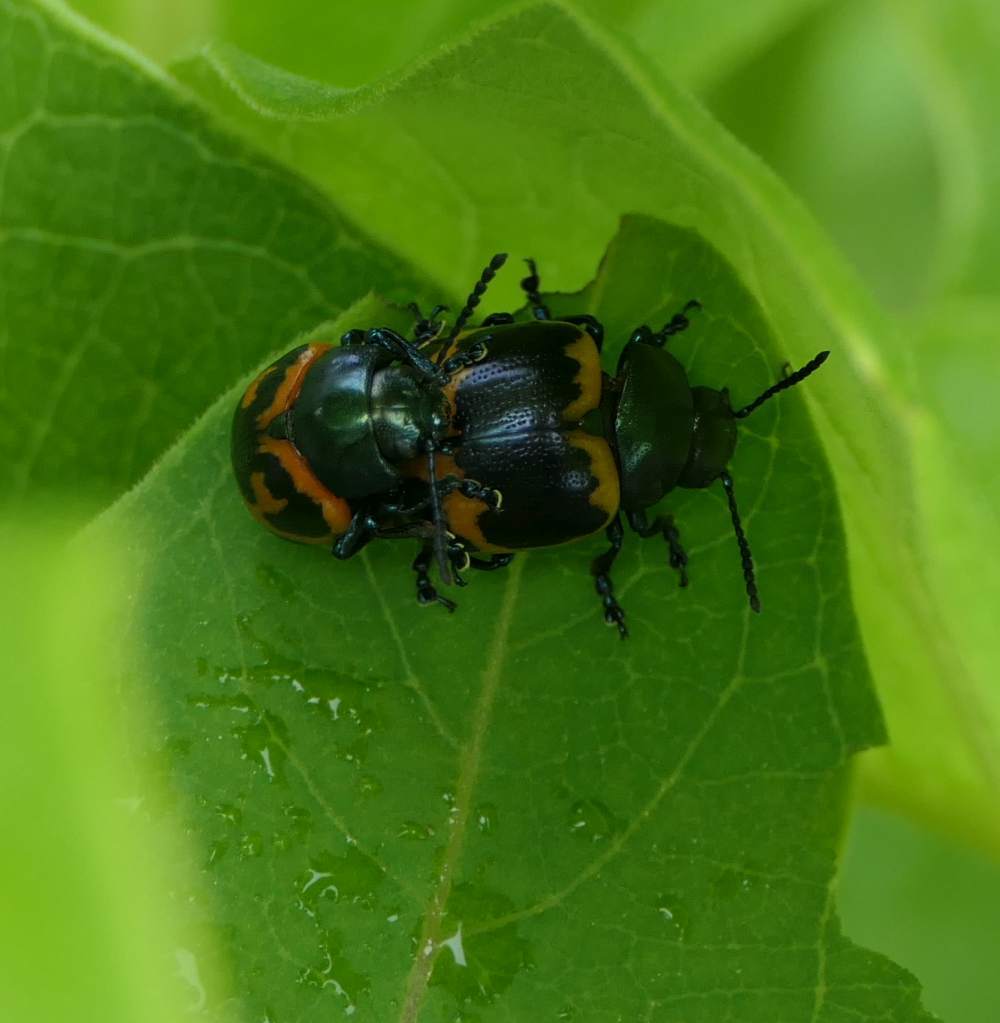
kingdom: Animalia
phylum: Arthropoda
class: Insecta
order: Coleoptera
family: Chrysomelidae
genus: Labidomera
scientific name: Labidomera clivicollis
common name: Swamp milkweed leaf beetle
